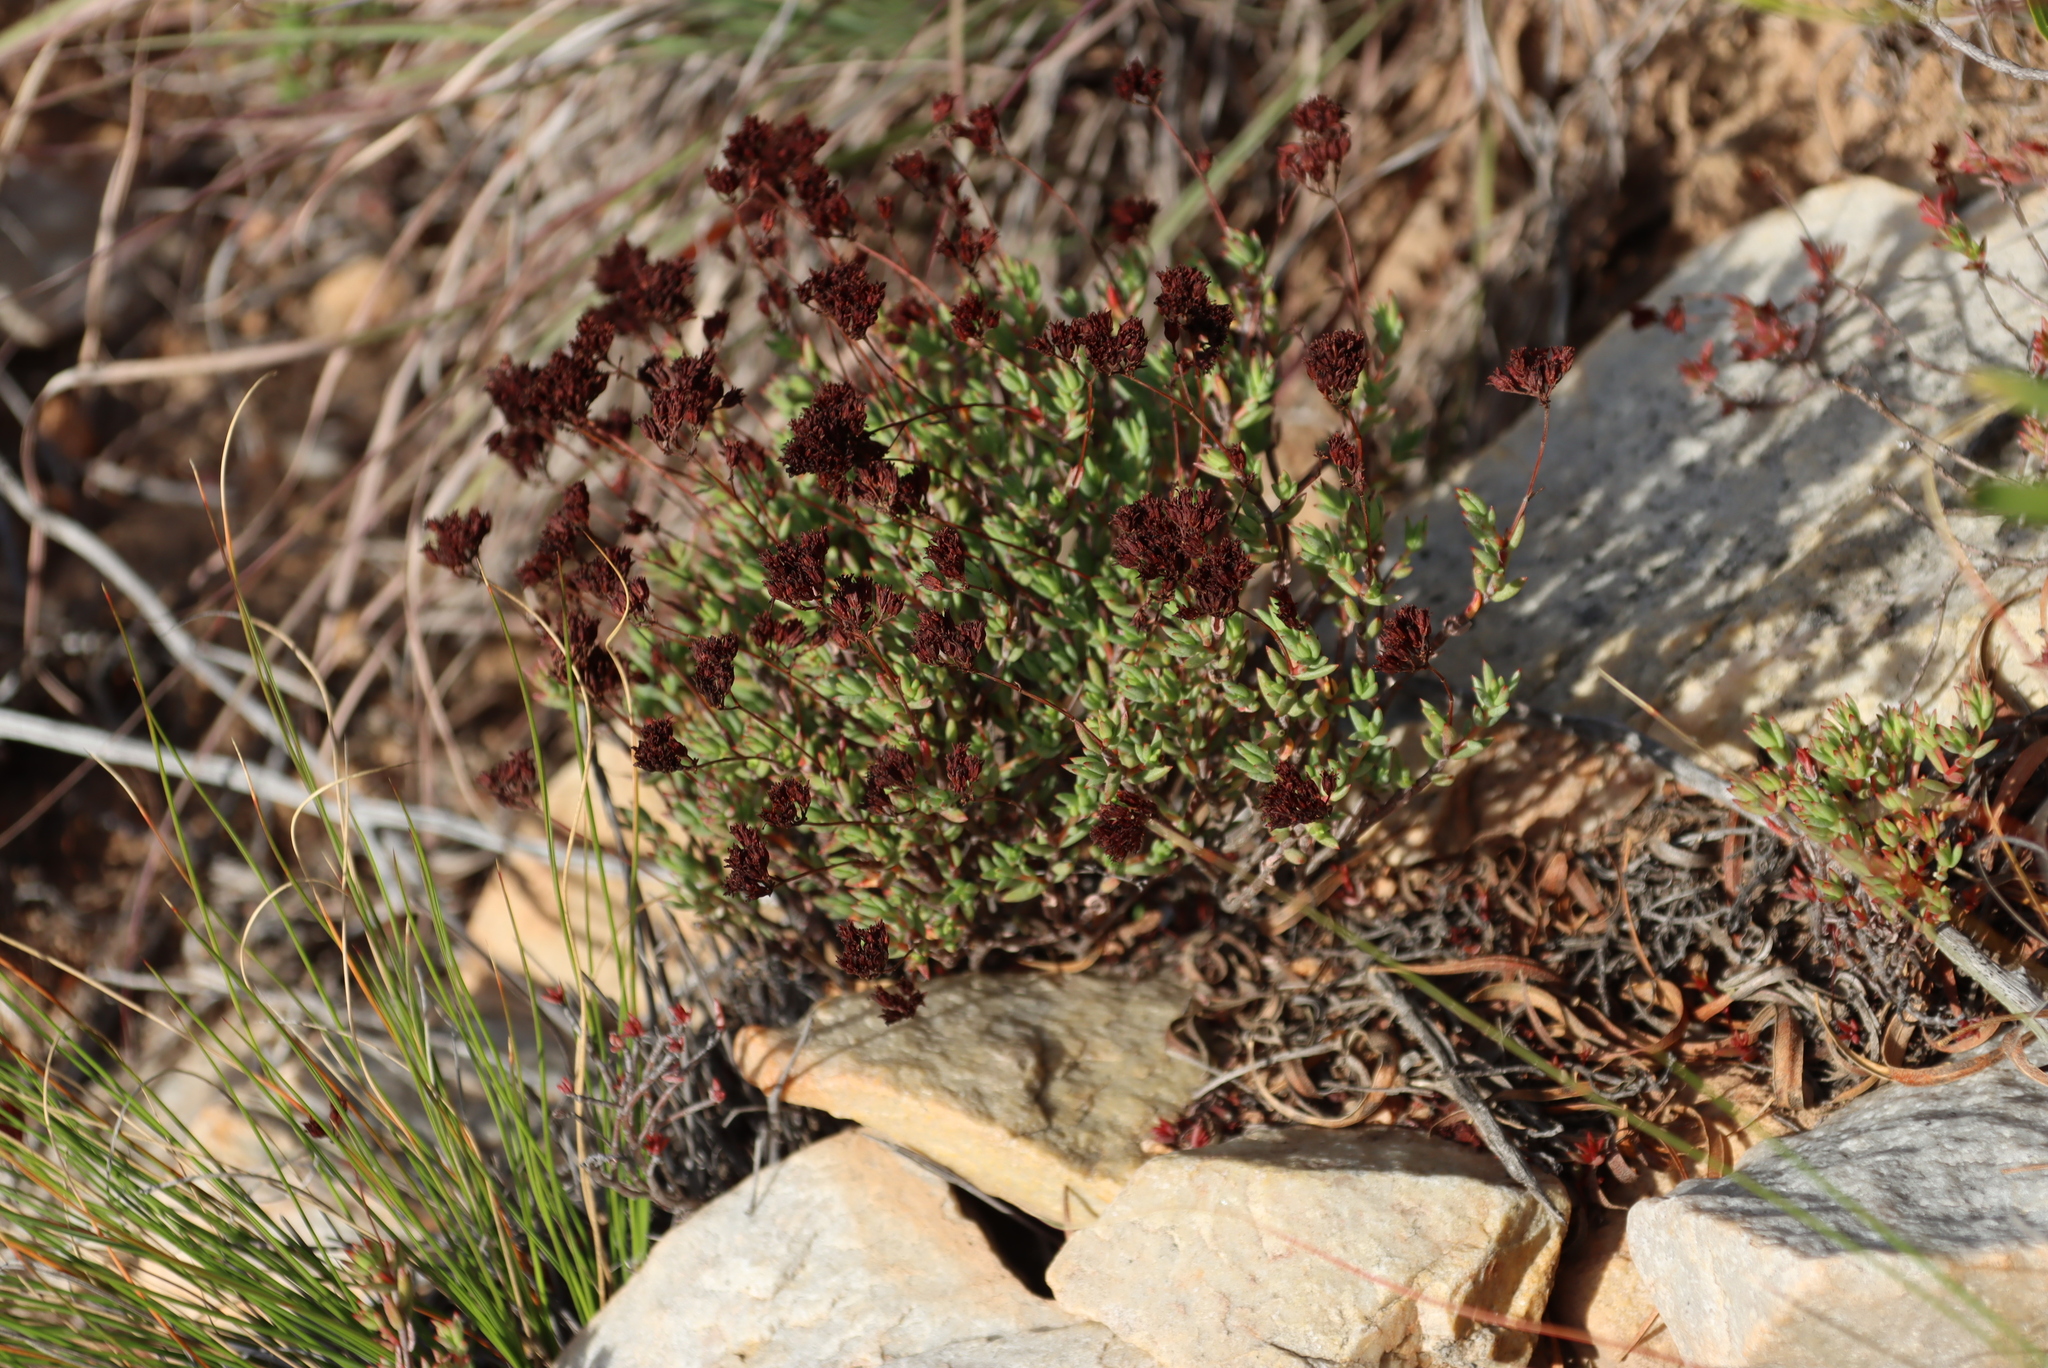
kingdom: Plantae
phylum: Tracheophyta
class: Magnoliopsida
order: Saxifragales
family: Crassulaceae
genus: Crassula
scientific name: Crassula biplanata
